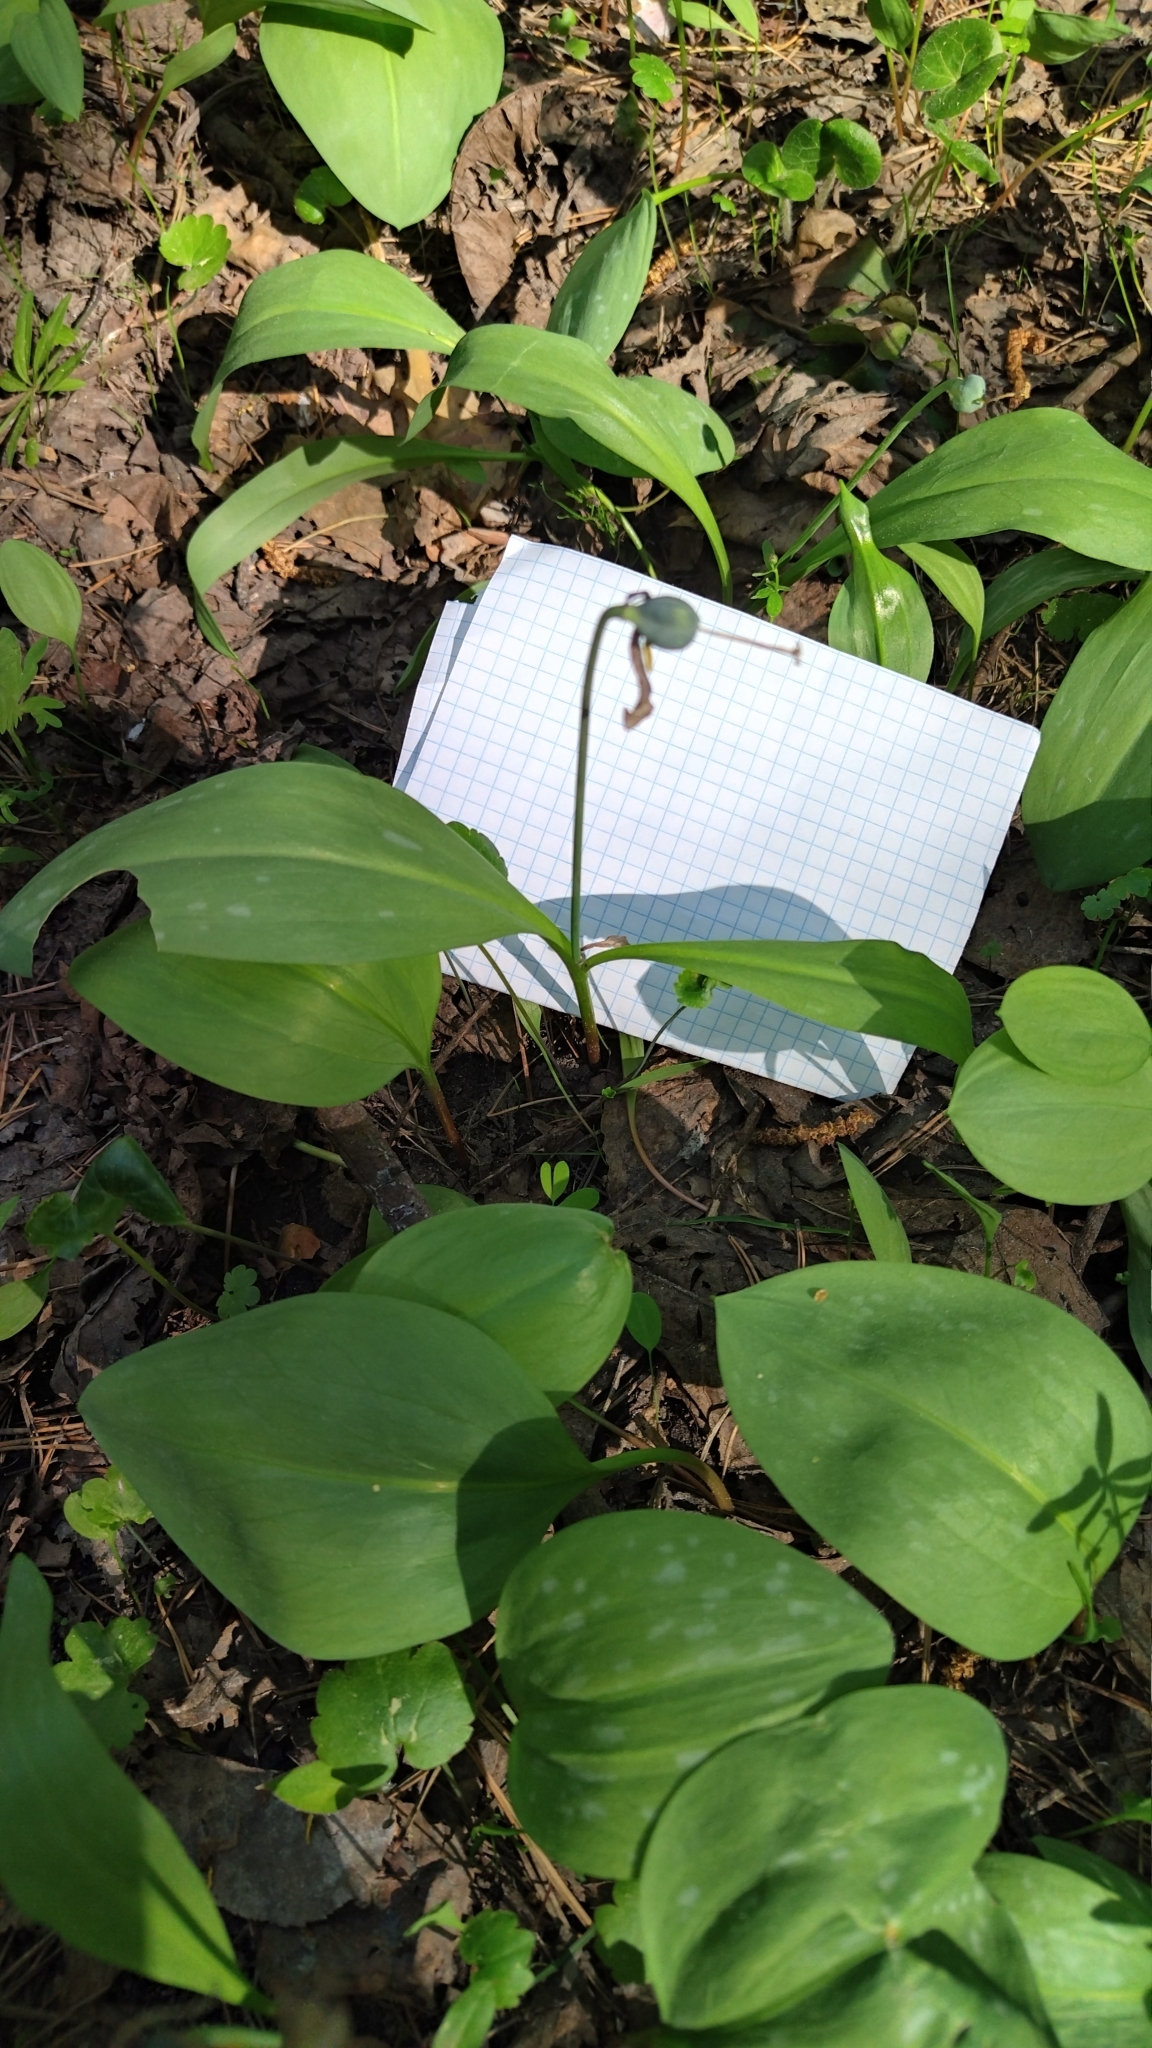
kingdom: Plantae
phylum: Tracheophyta
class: Liliopsida
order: Liliales
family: Liliaceae
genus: Erythronium
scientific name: Erythronium sibiricum
